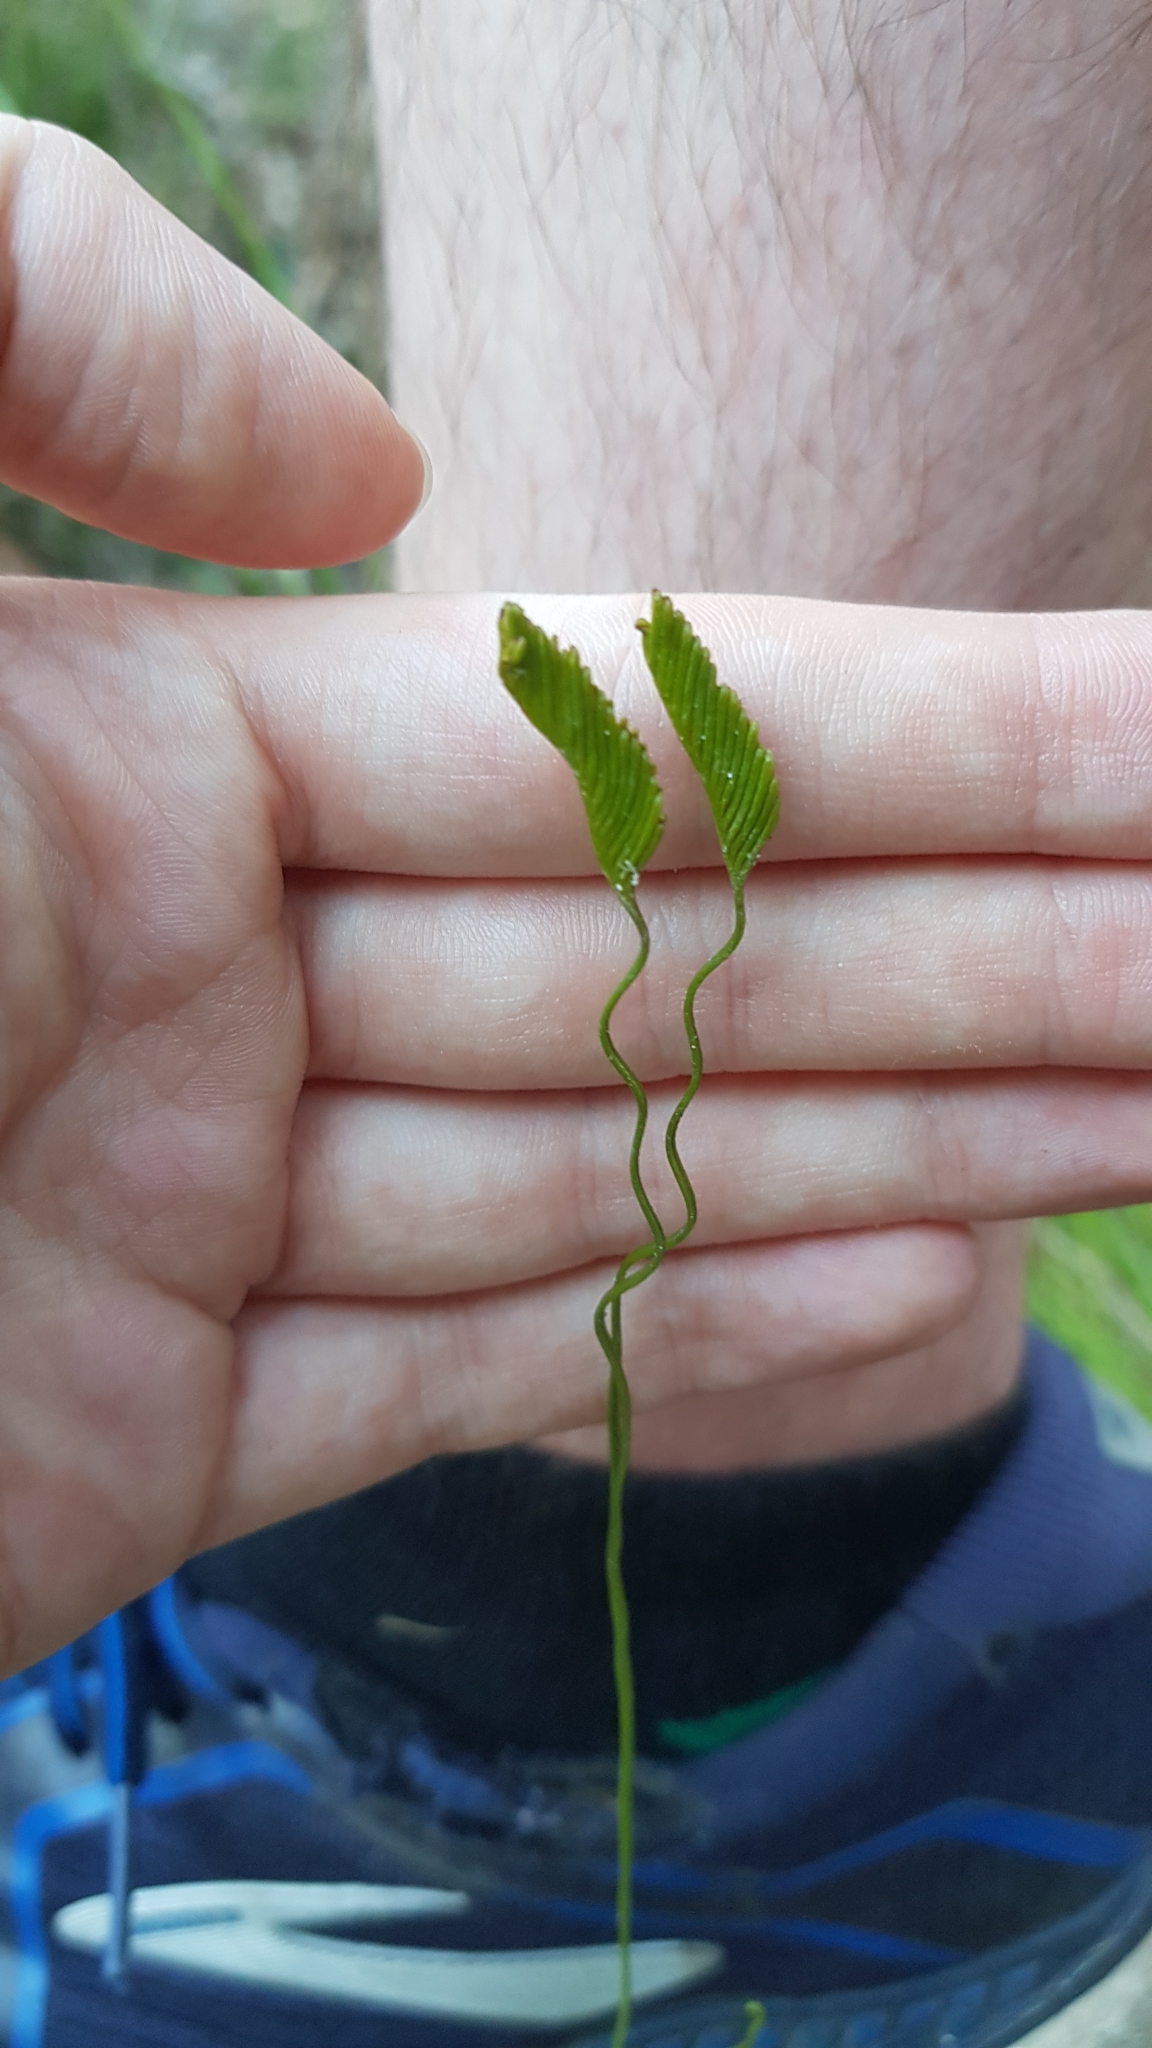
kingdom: Plantae
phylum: Tracheophyta
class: Polypodiopsida
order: Schizaeales
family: Schizaeaceae
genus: Schizaea
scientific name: Schizaea bifida
